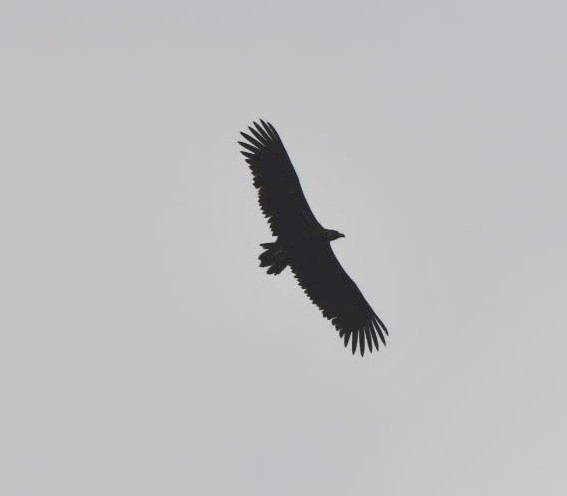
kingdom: Animalia
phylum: Chordata
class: Aves
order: Accipitriformes
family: Accipitridae
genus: Aegypius
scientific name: Aegypius monachus
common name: Cinereous vulture
